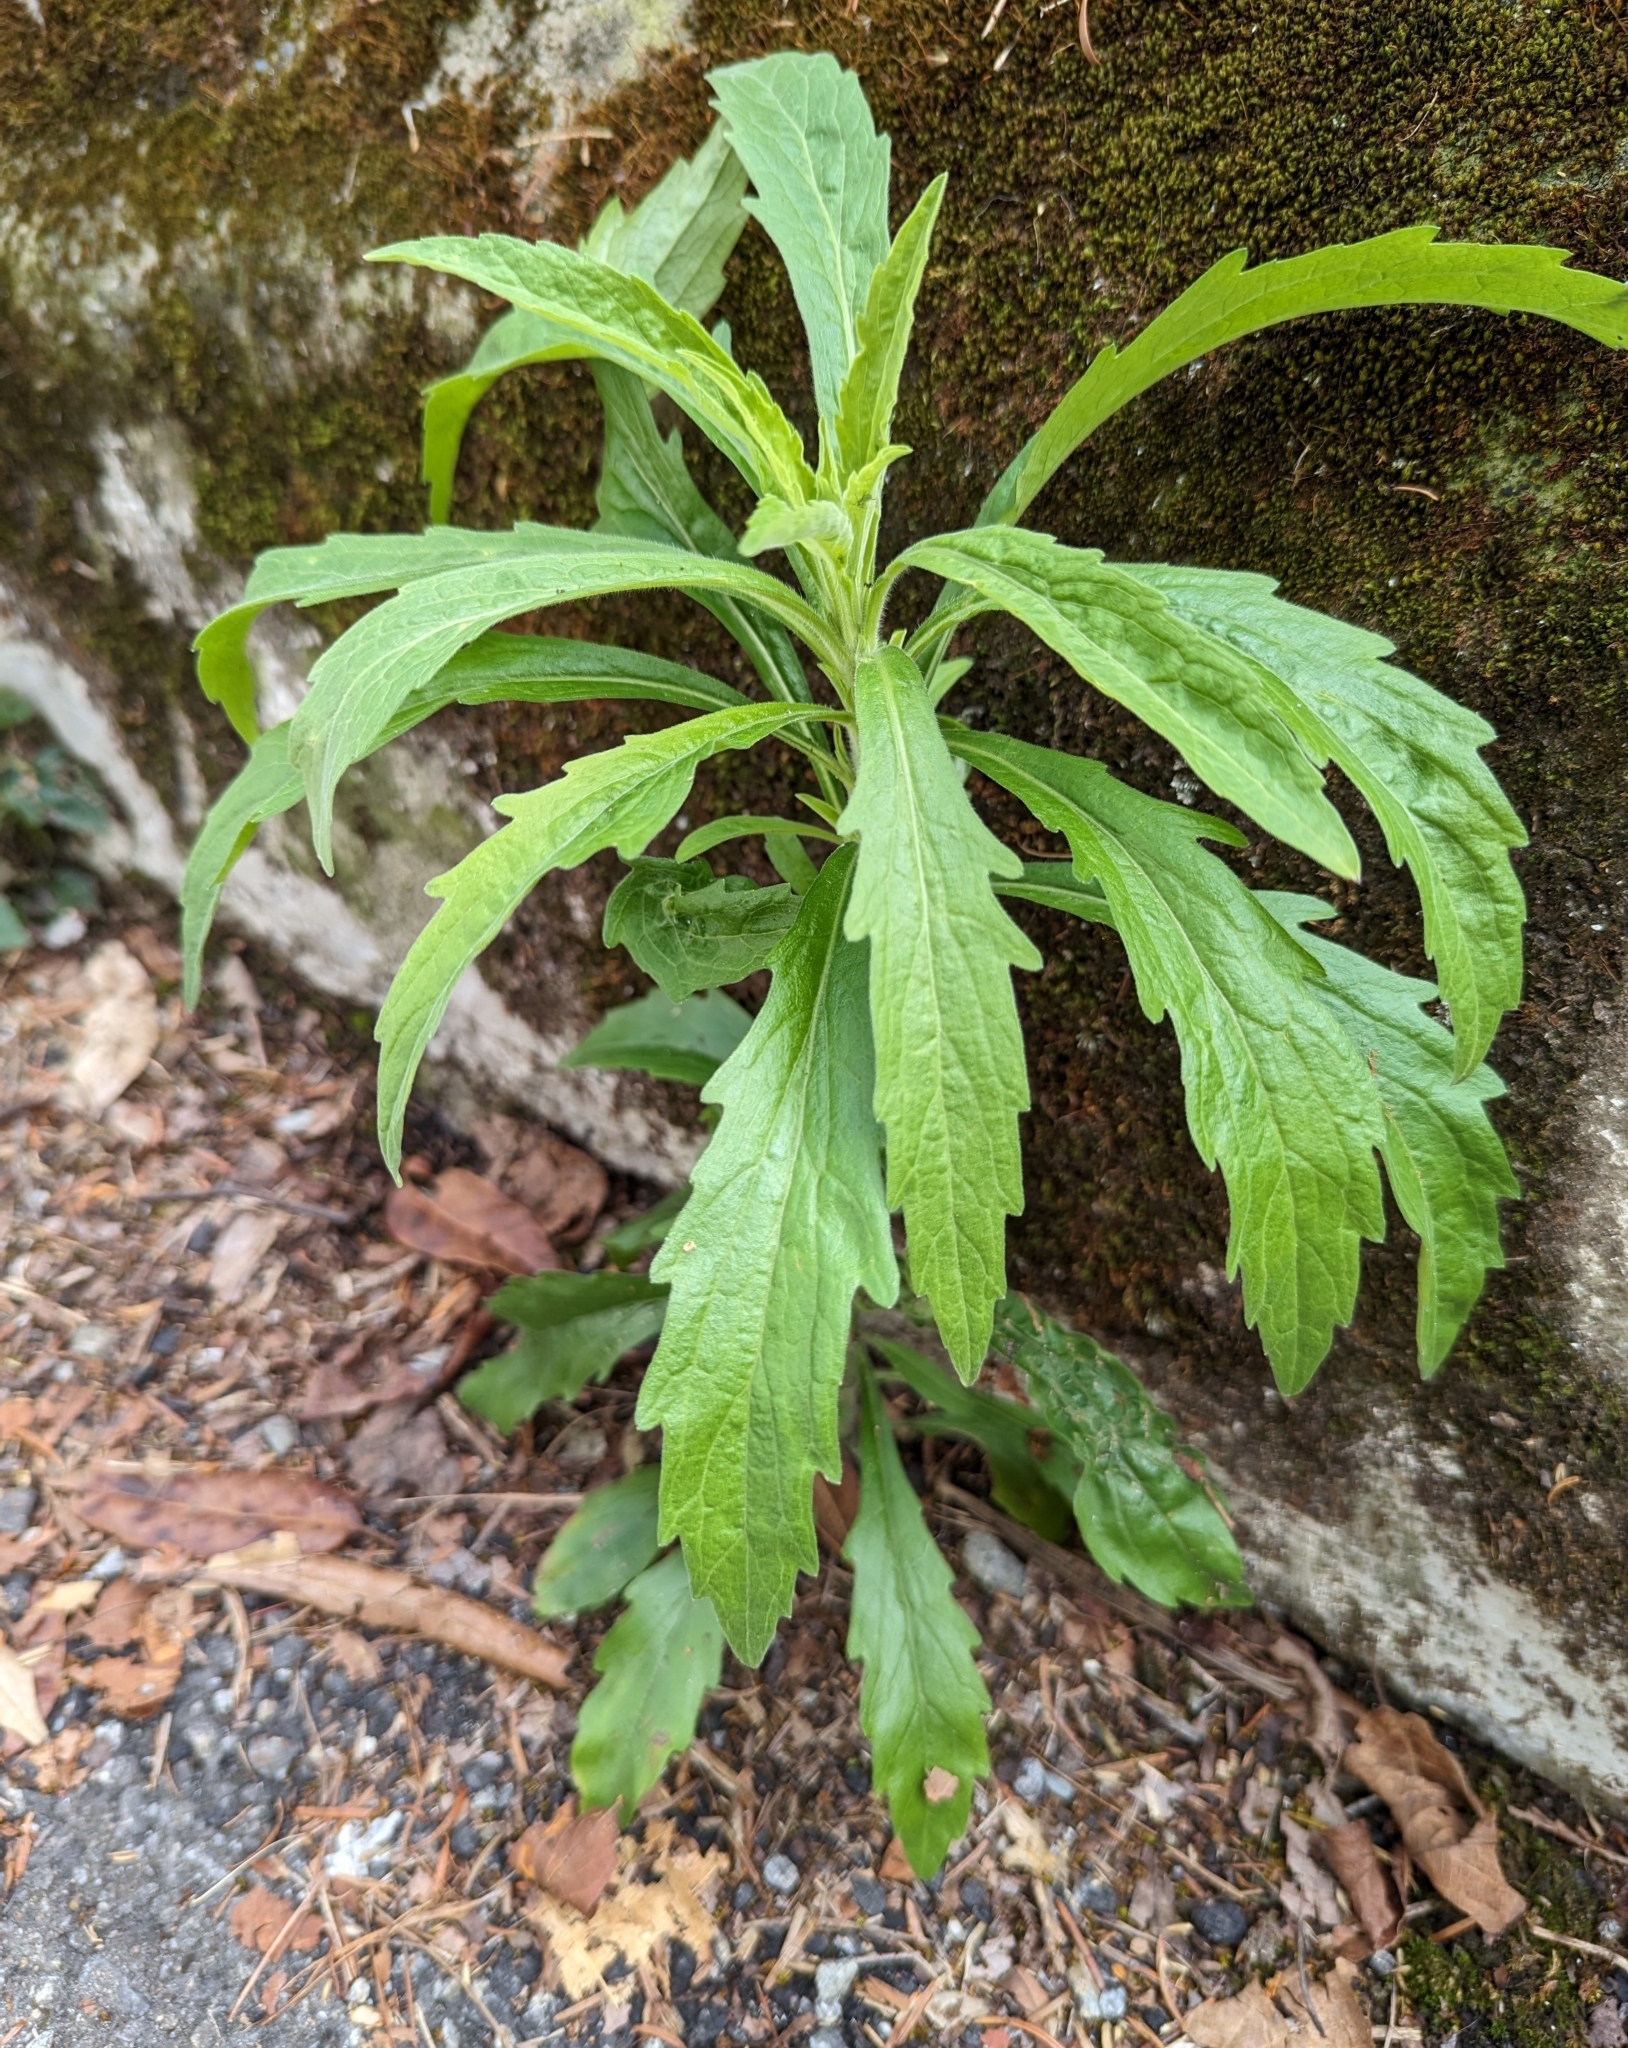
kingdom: Plantae
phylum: Tracheophyta
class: Magnoliopsida
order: Asterales
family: Asteraceae
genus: Erigeron
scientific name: Erigeron sumatrensis
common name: Daisy
